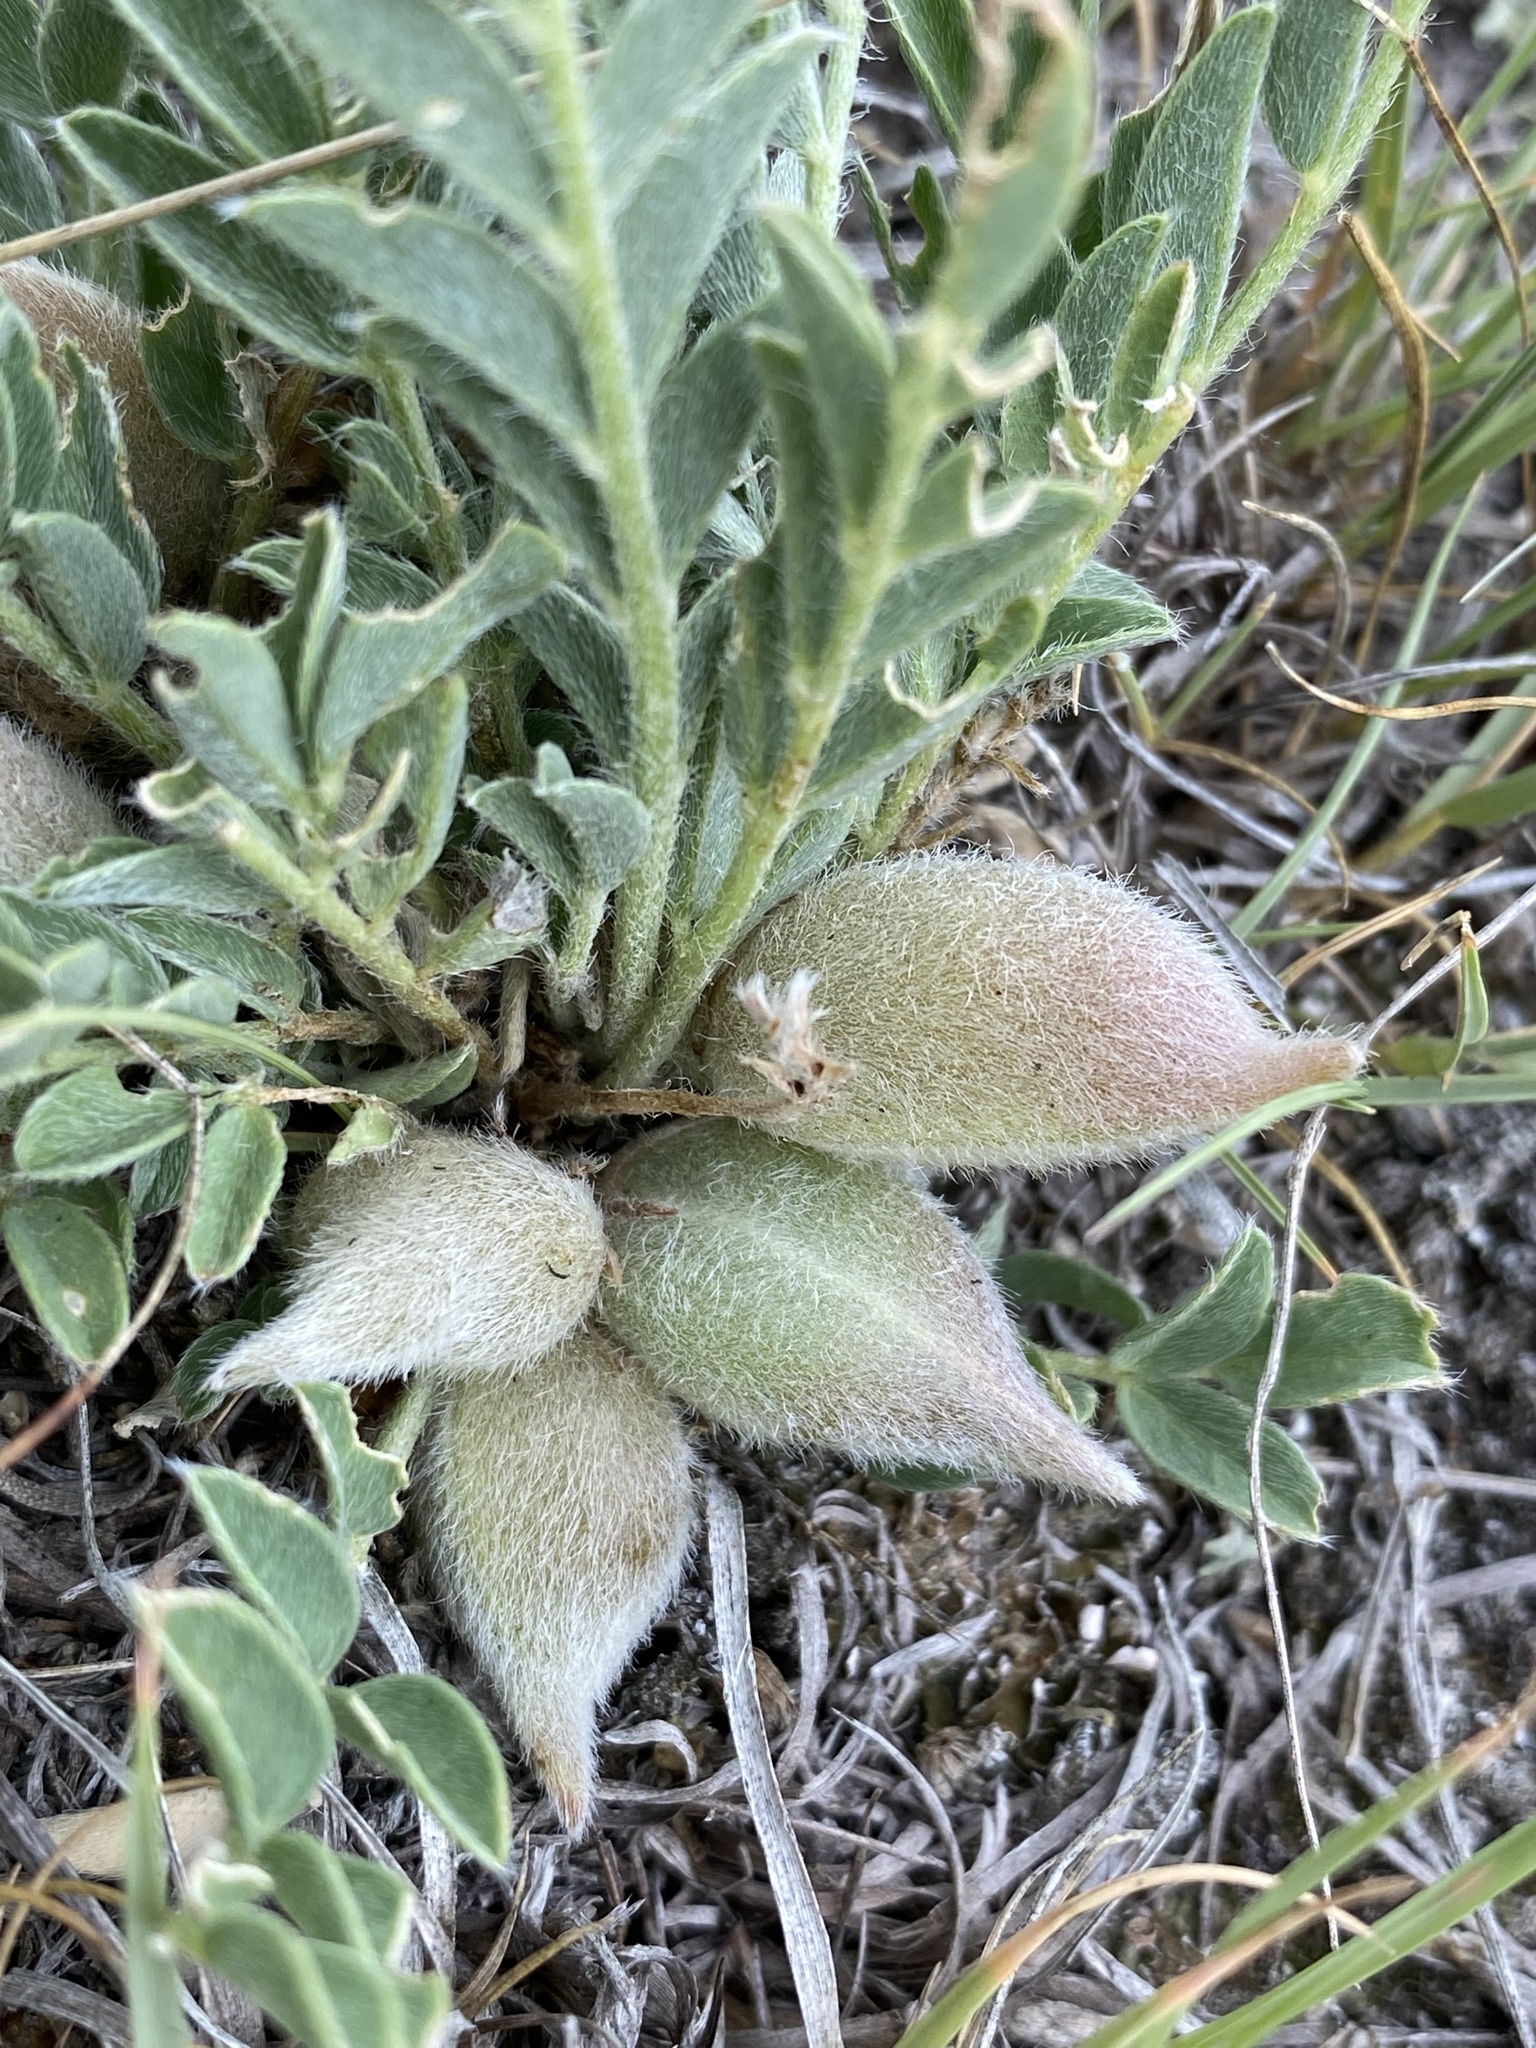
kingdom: Plantae
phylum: Tracheophyta
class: Magnoliopsida
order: Fabales
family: Fabaceae
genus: Astragalus
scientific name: Astragalus lotiflorus
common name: Lotus milk-vetch
